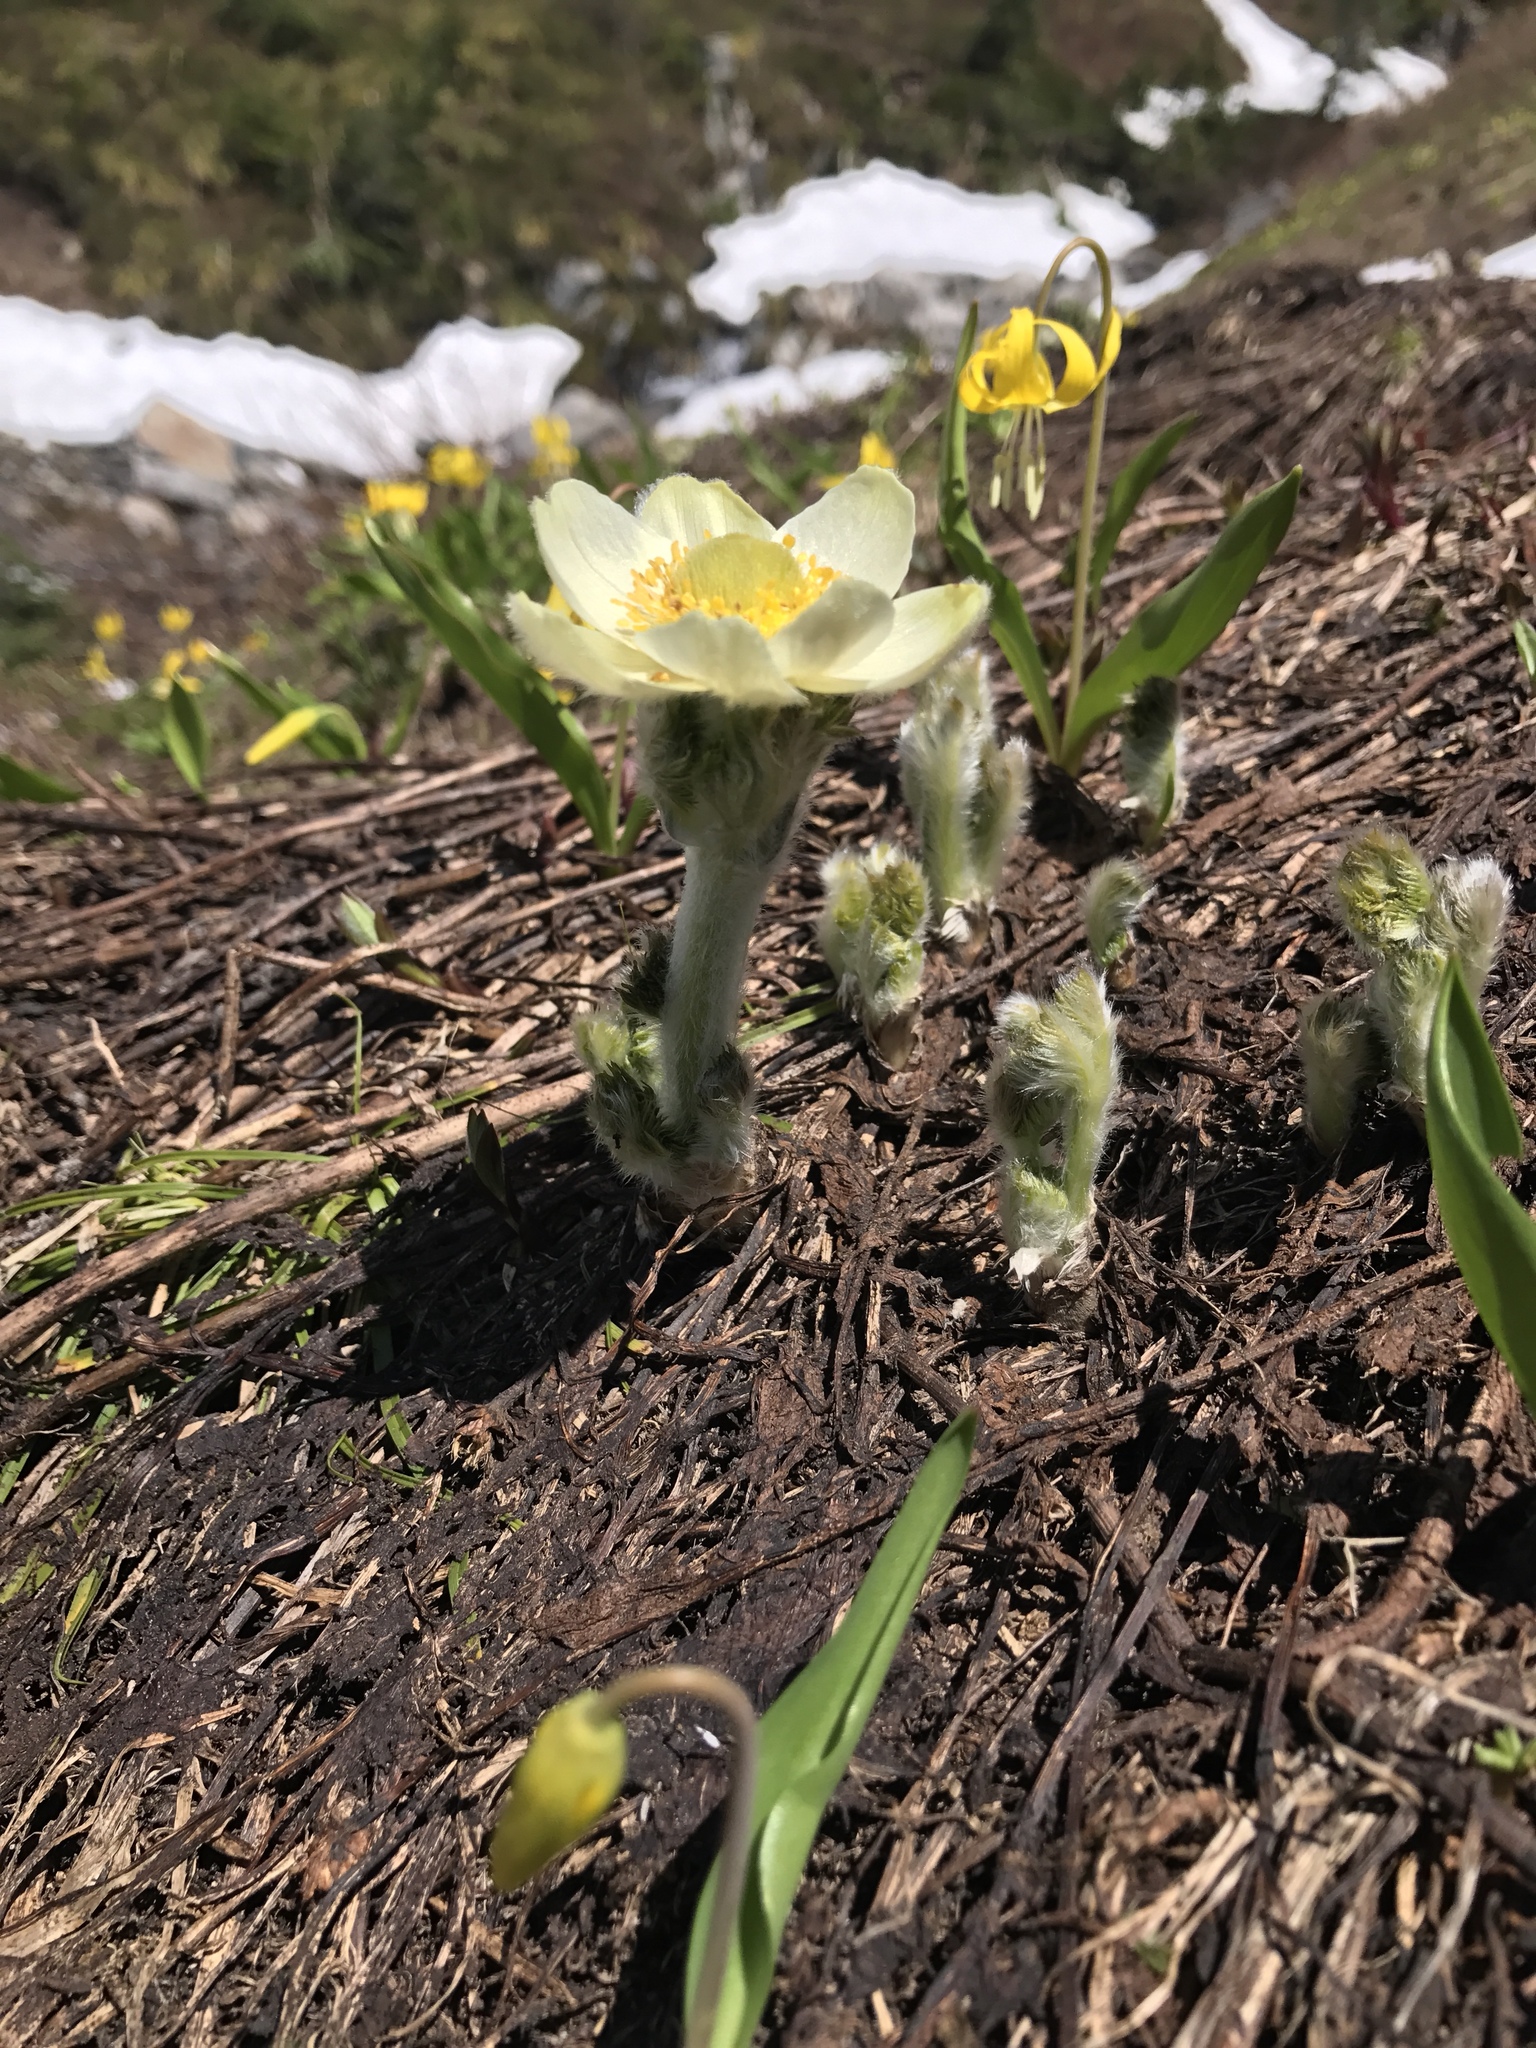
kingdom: Plantae
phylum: Tracheophyta
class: Magnoliopsida
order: Ranunculales
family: Ranunculaceae
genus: Pulsatilla
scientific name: Pulsatilla occidentalis
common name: Mountain pasqueflower
